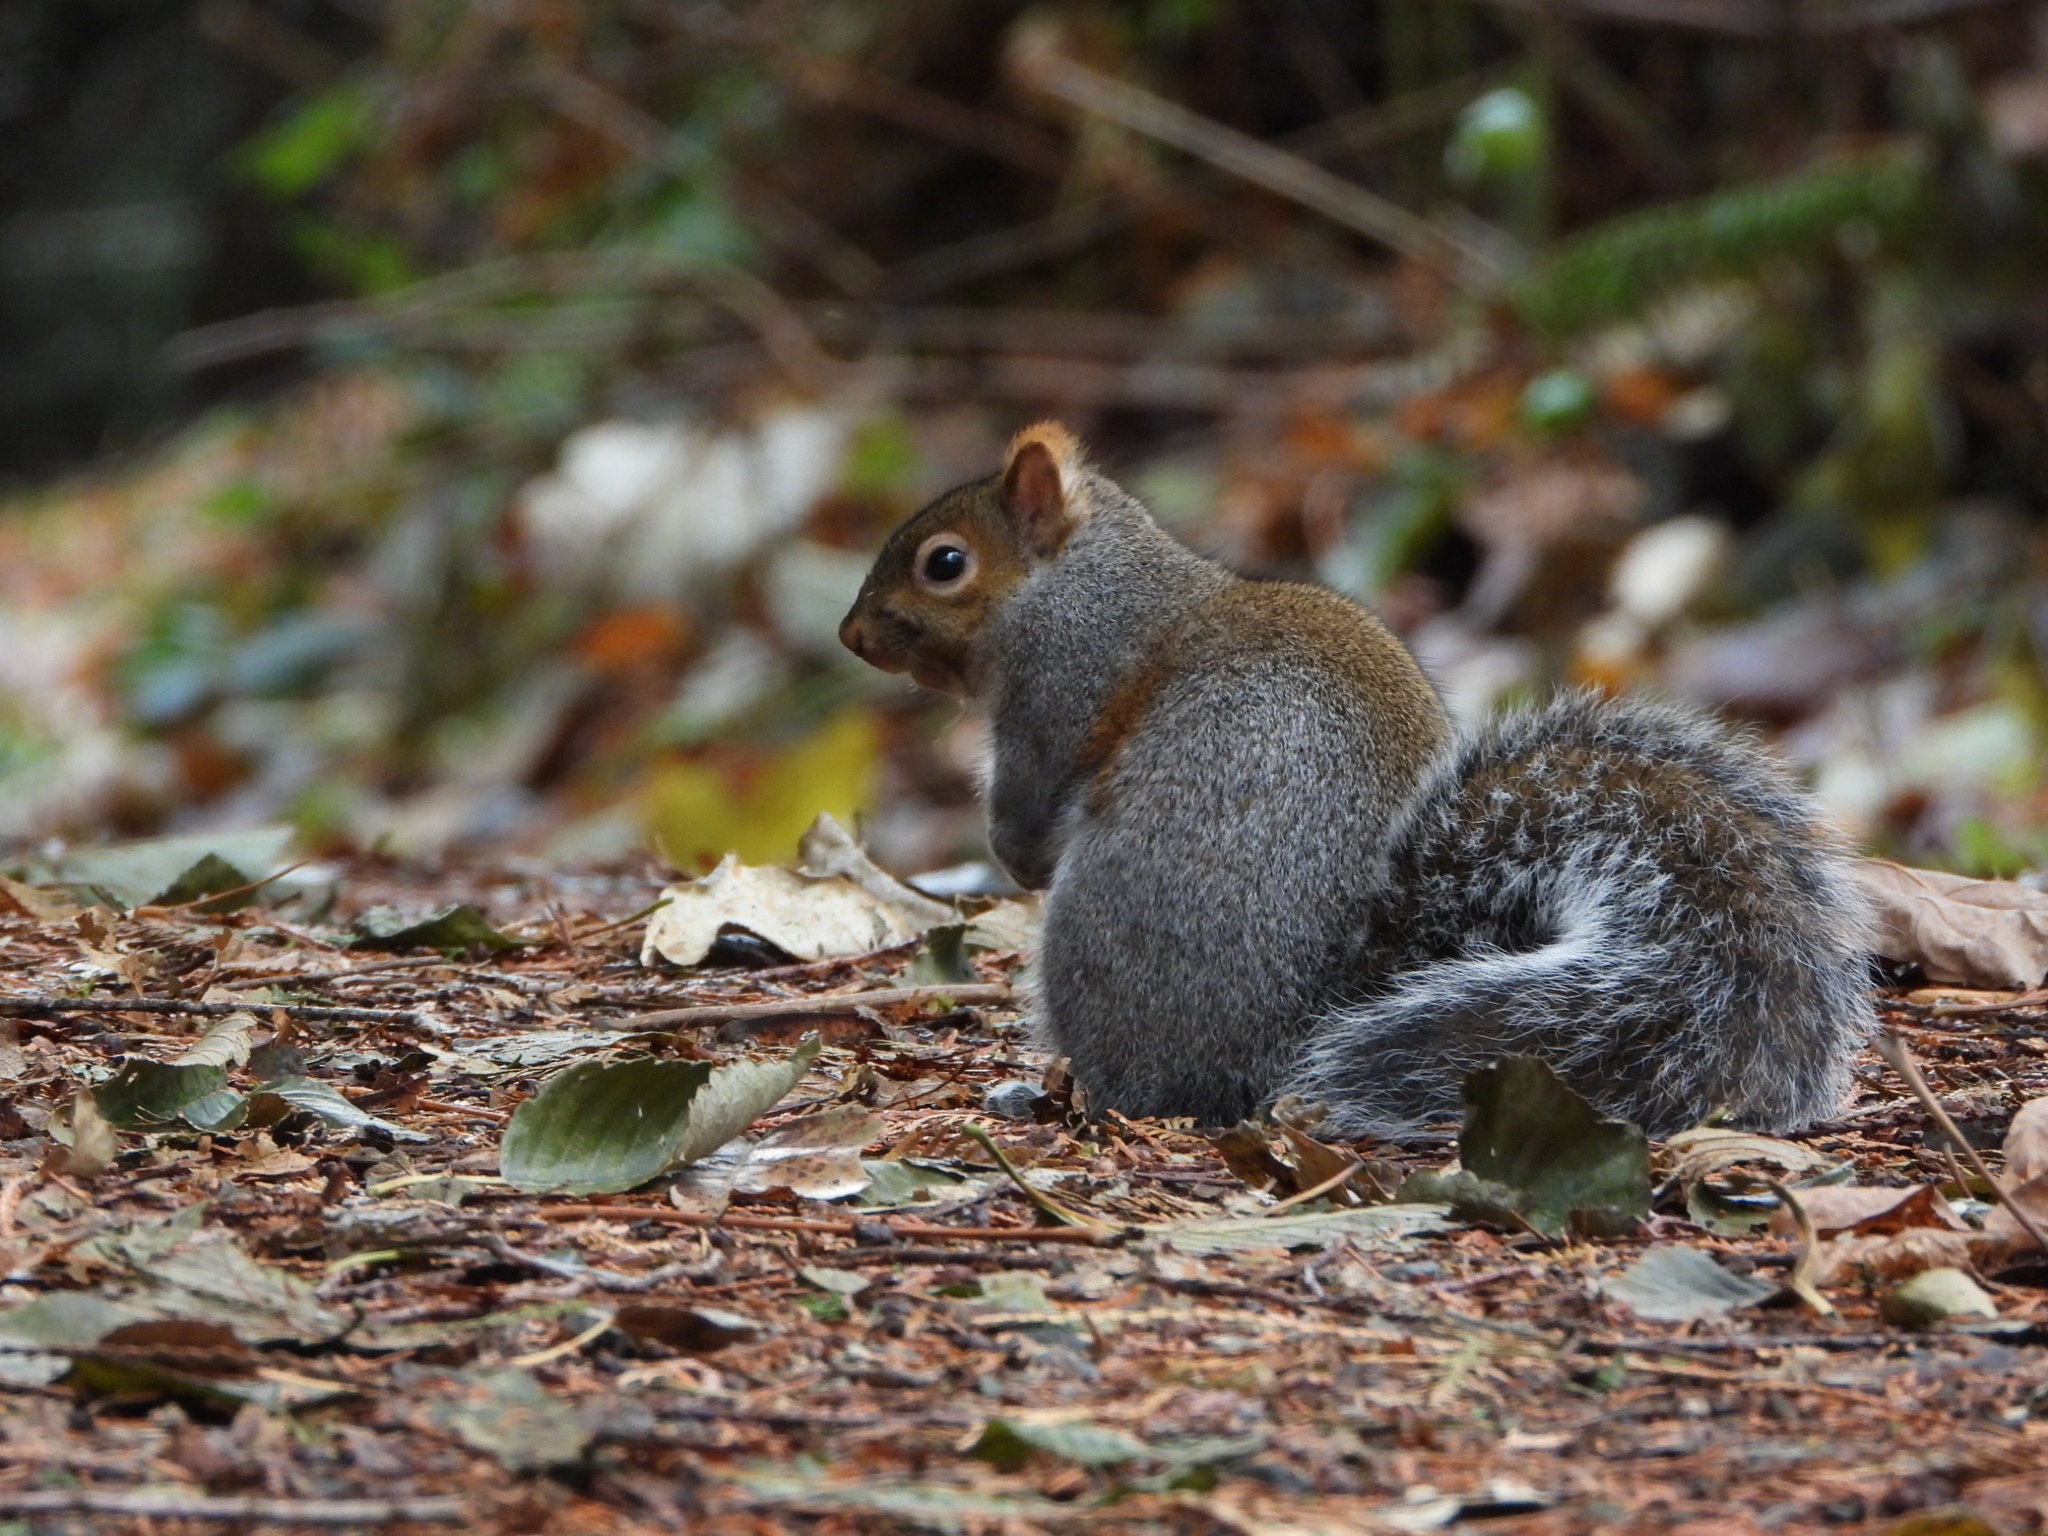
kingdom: Animalia
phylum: Chordata
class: Mammalia
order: Rodentia
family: Sciuridae
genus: Sciurus
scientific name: Sciurus carolinensis
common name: Eastern gray squirrel
